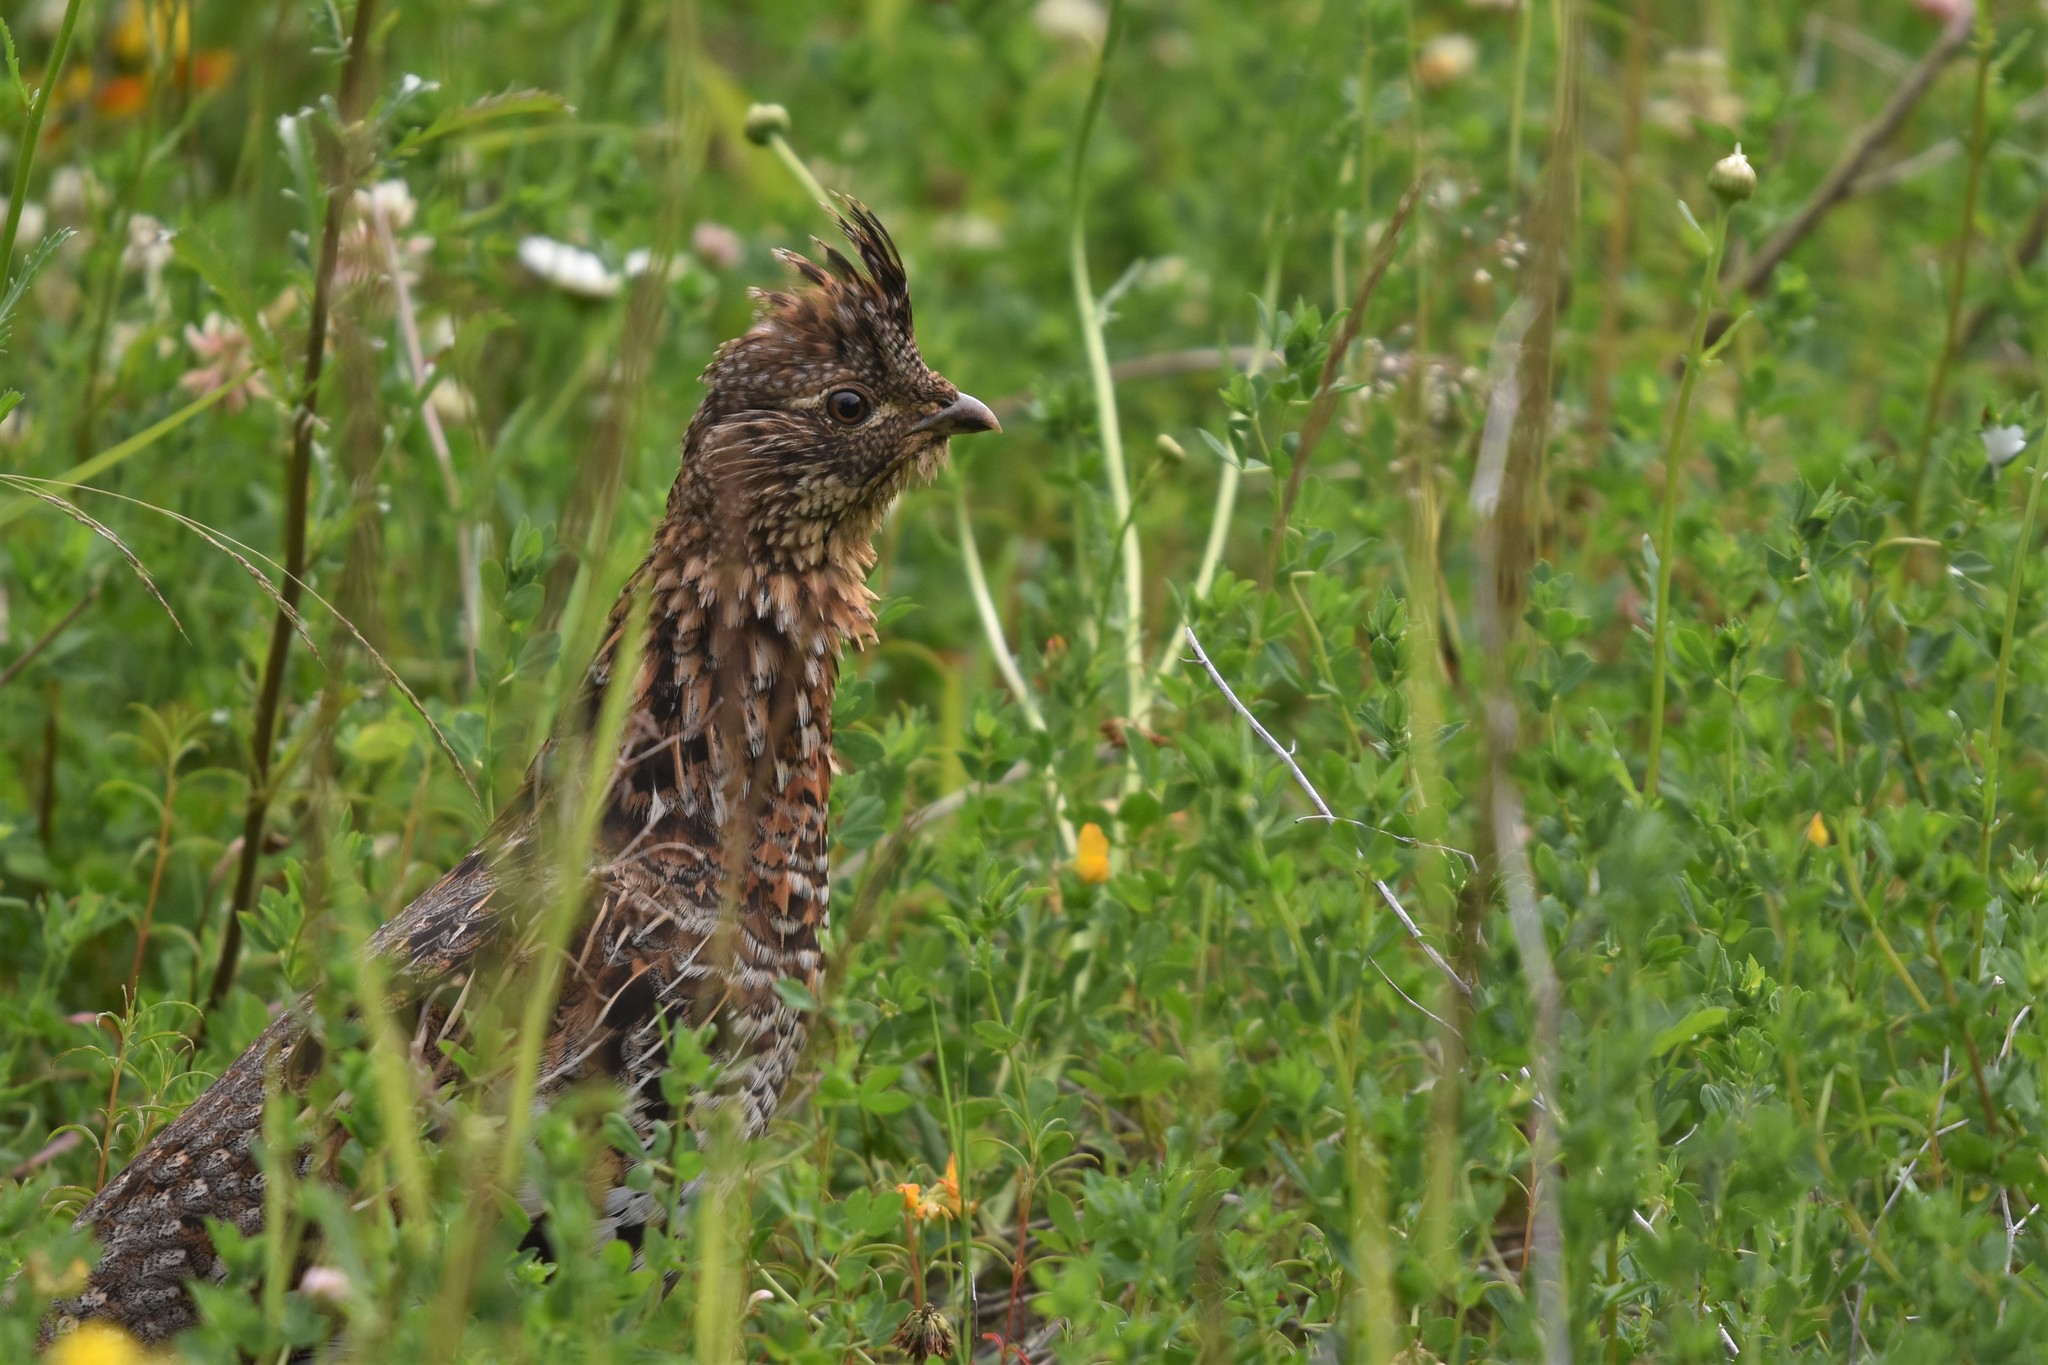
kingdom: Animalia
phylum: Chordata
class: Aves
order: Galliformes
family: Phasianidae
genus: Bonasa
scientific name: Bonasa umbellus
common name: Ruffed grouse
